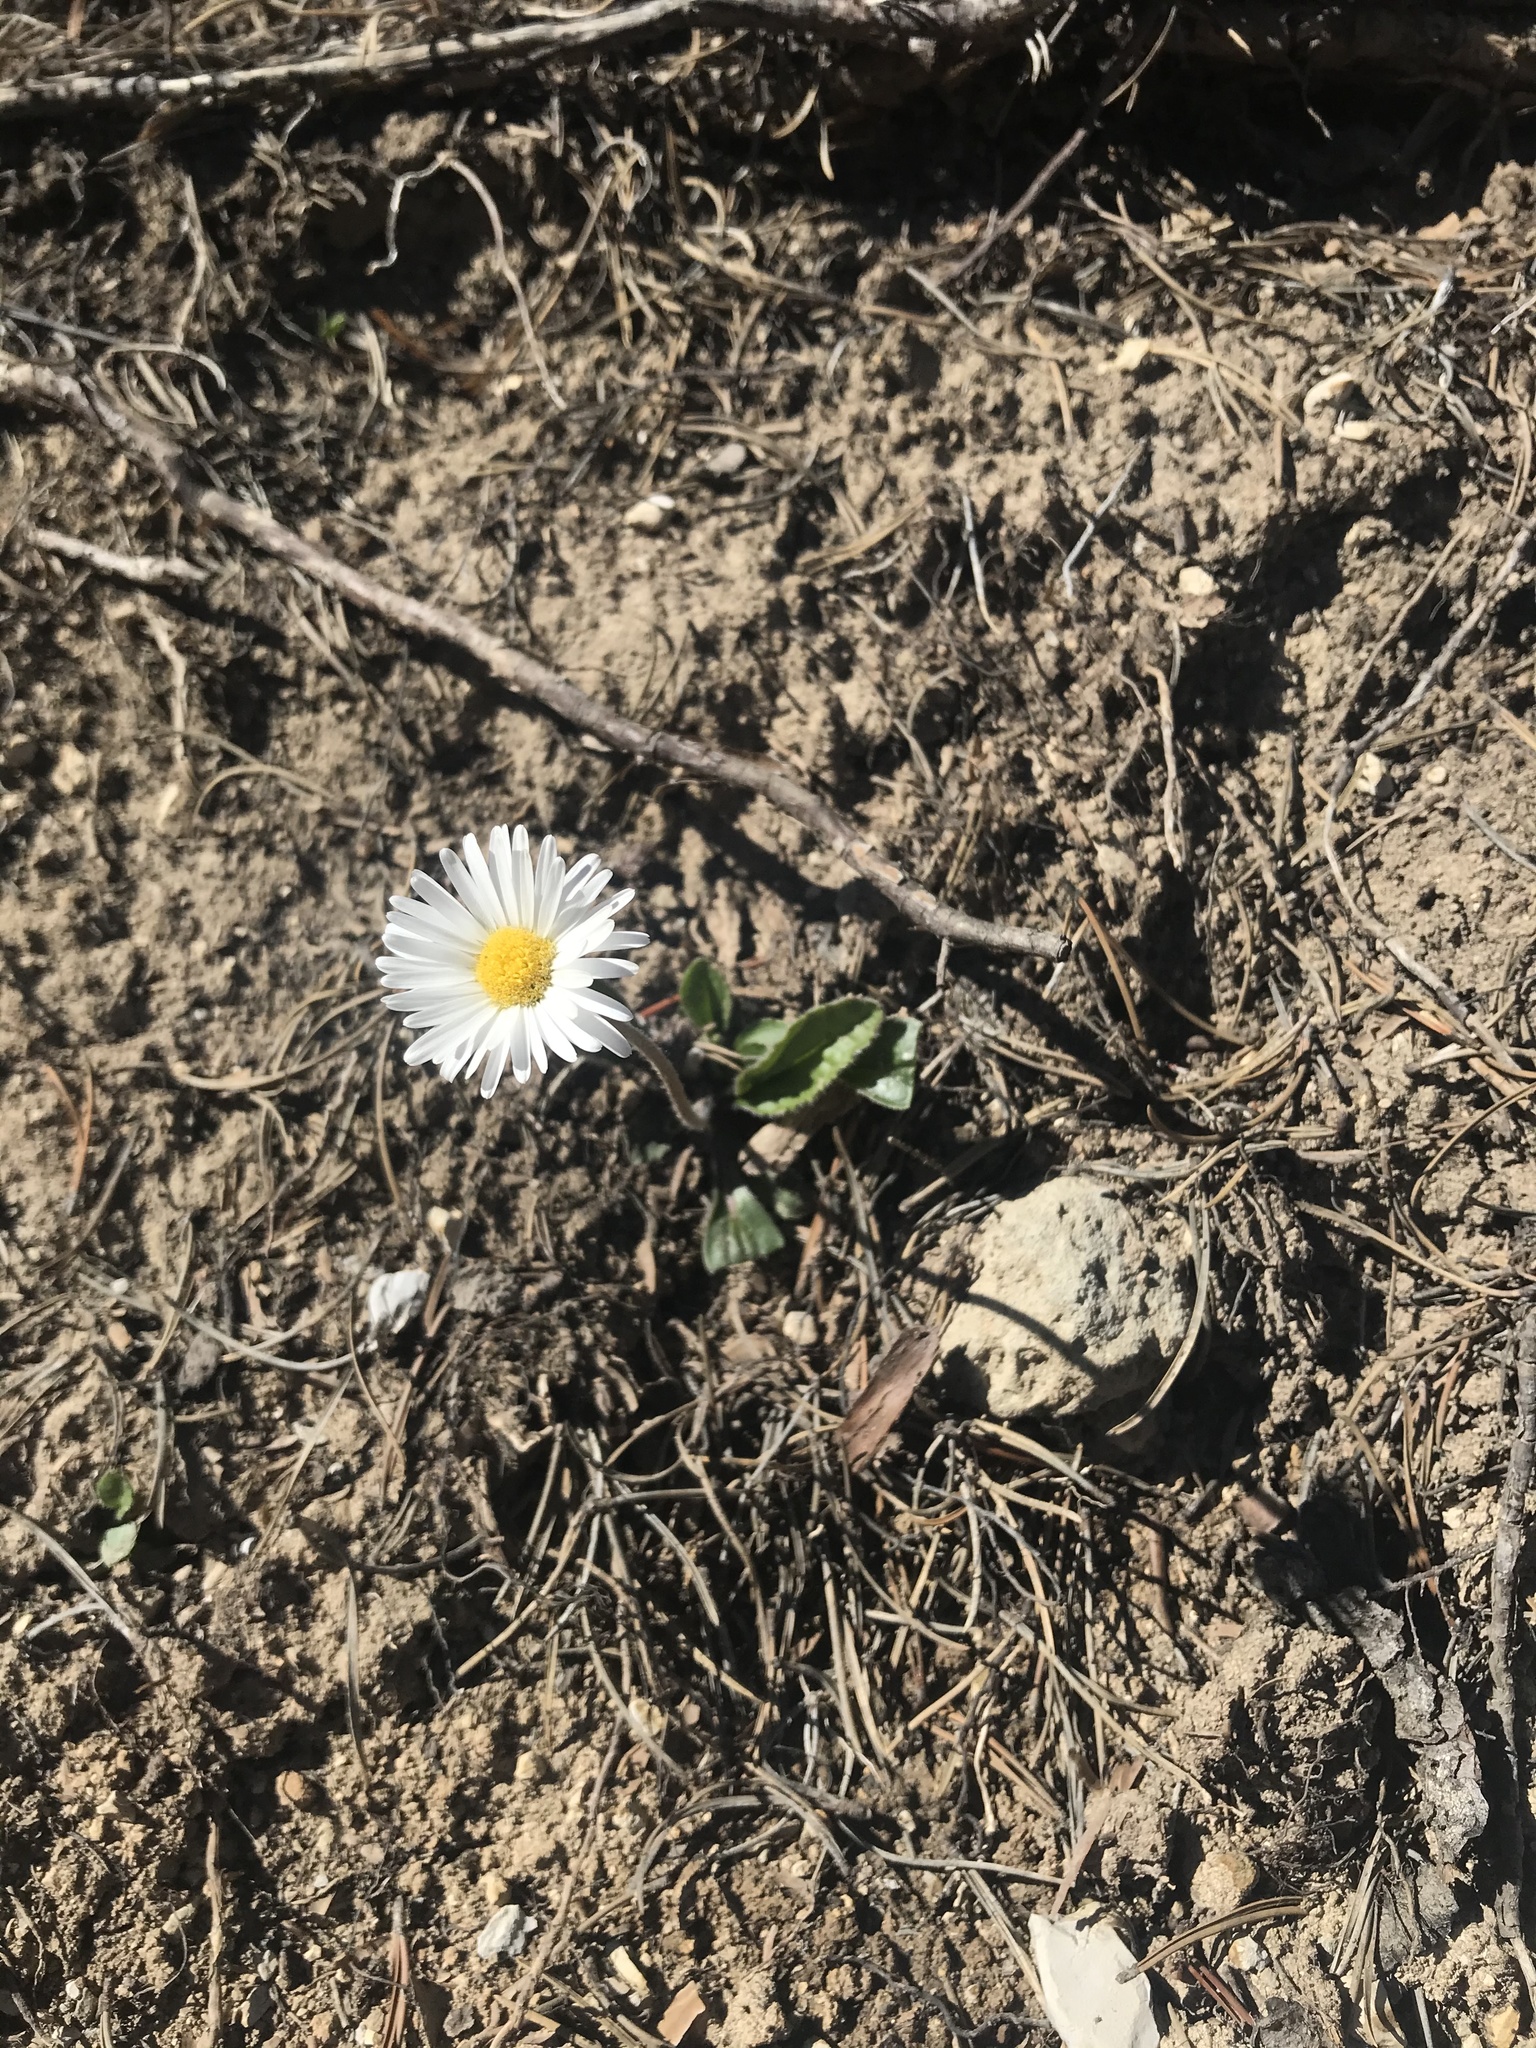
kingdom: Plantae
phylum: Tracheophyta
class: Magnoliopsida
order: Asterales
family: Asteraceae
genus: Bellis
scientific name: Bellis perennis
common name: Lawndaisy
